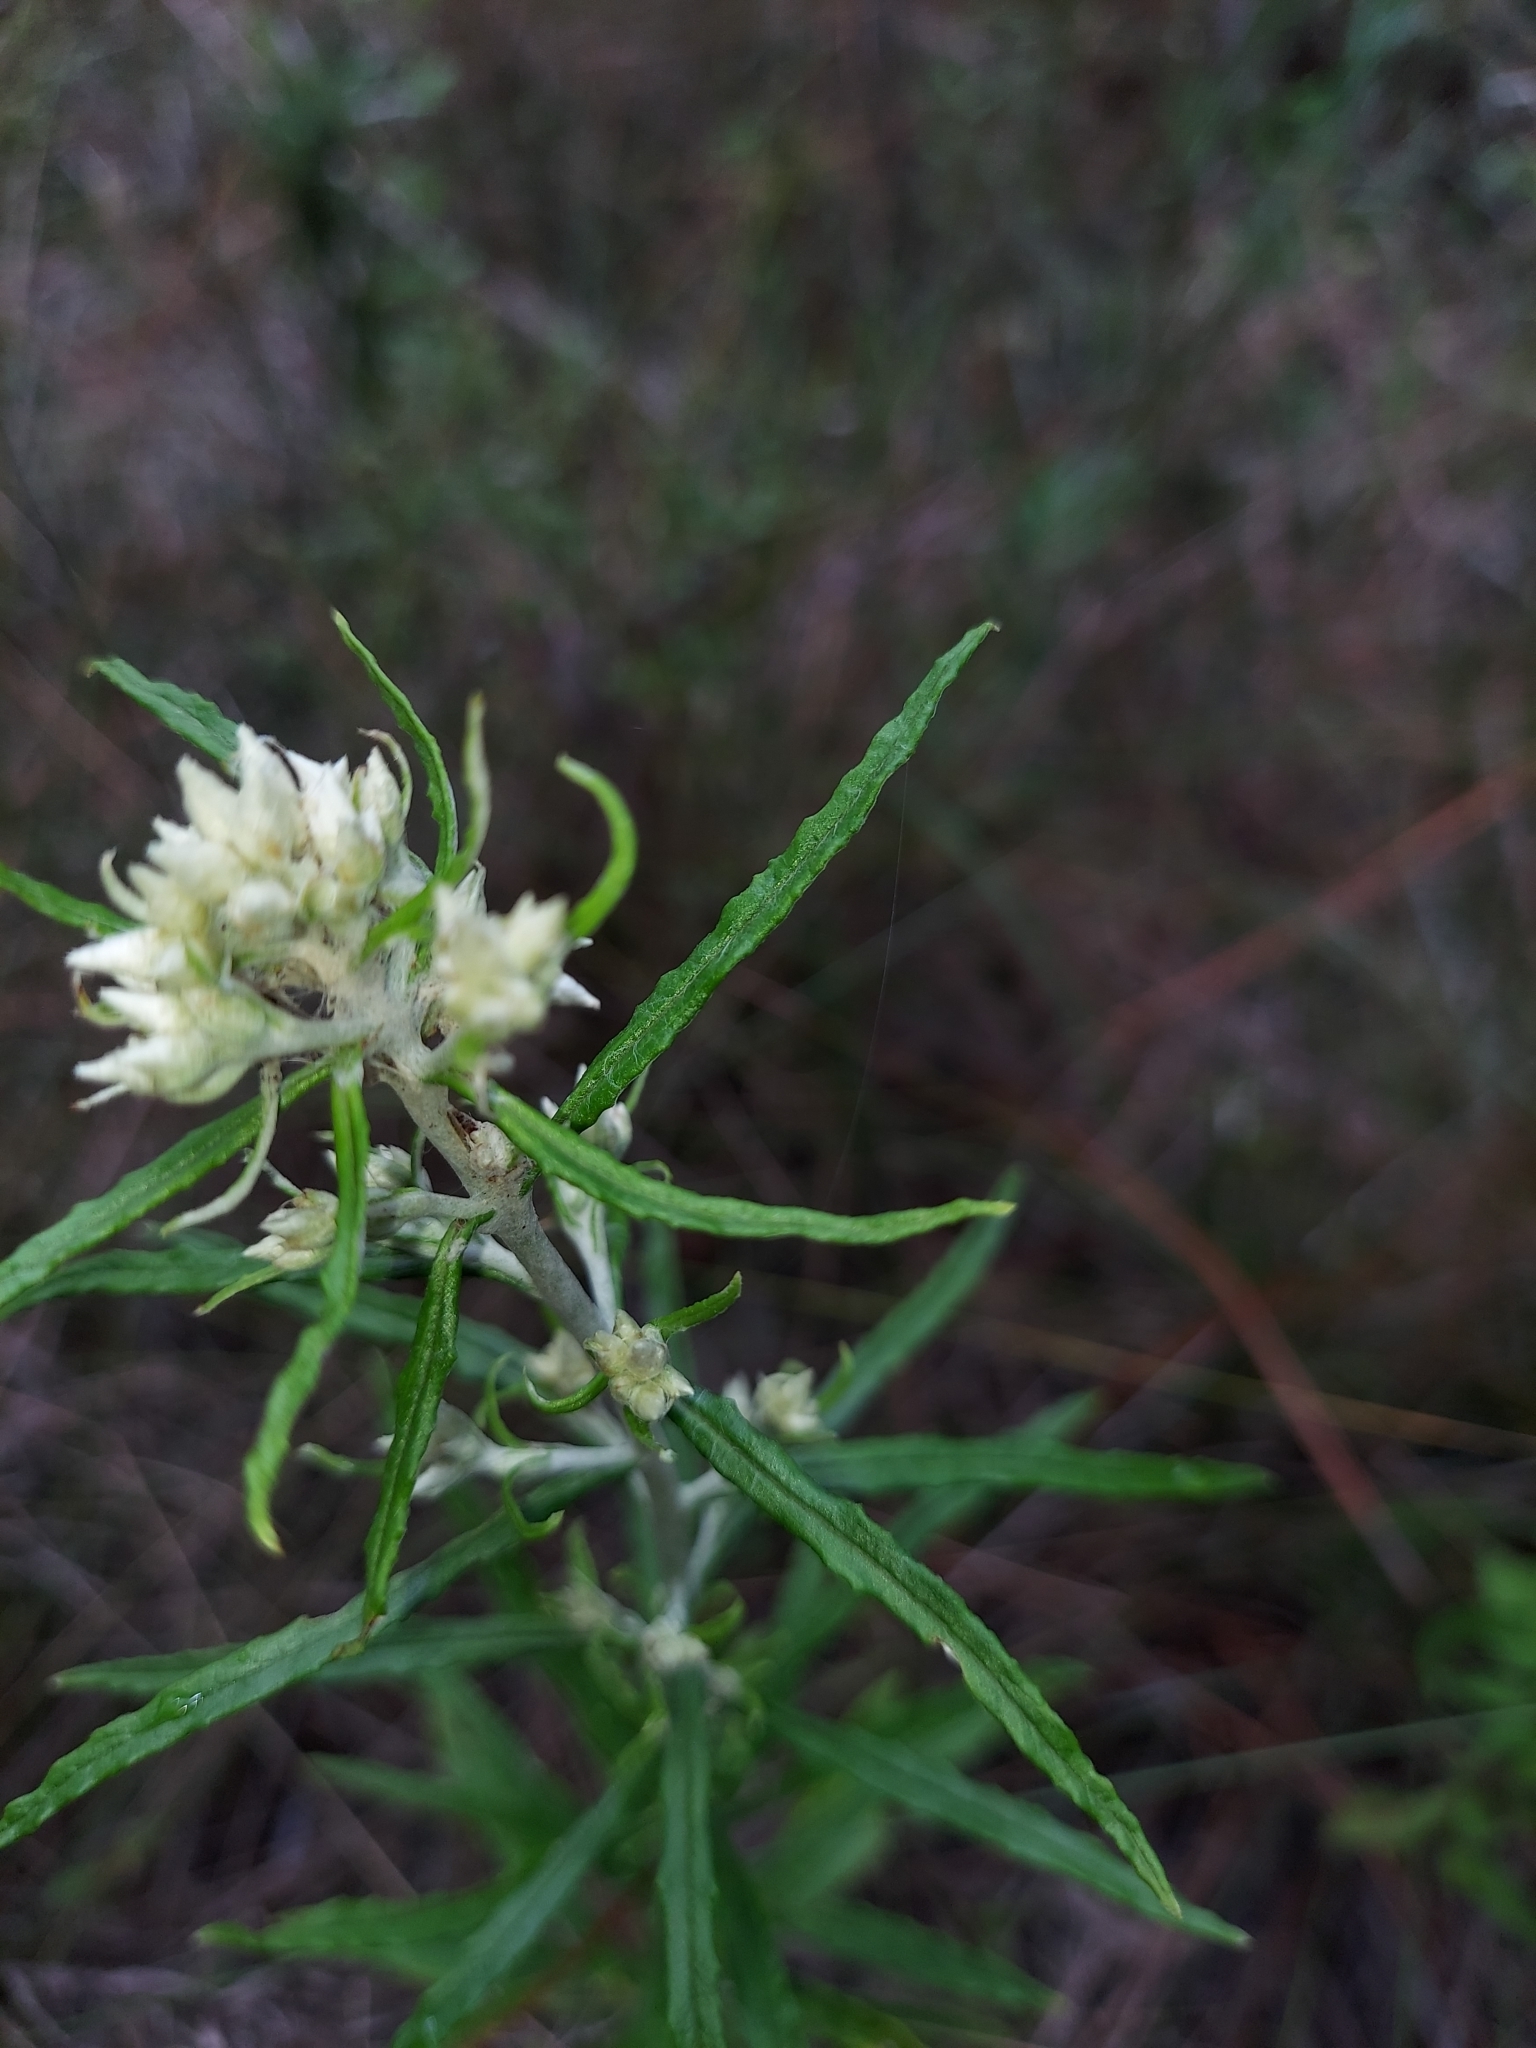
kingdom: Plantae
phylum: Tracheophyta
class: Magnoliopsida
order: Asterales
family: Asteraceae
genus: Pseudognaphalium
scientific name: Pseudognaphalium obtusifolium
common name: Eastern rabbit-tobacco
